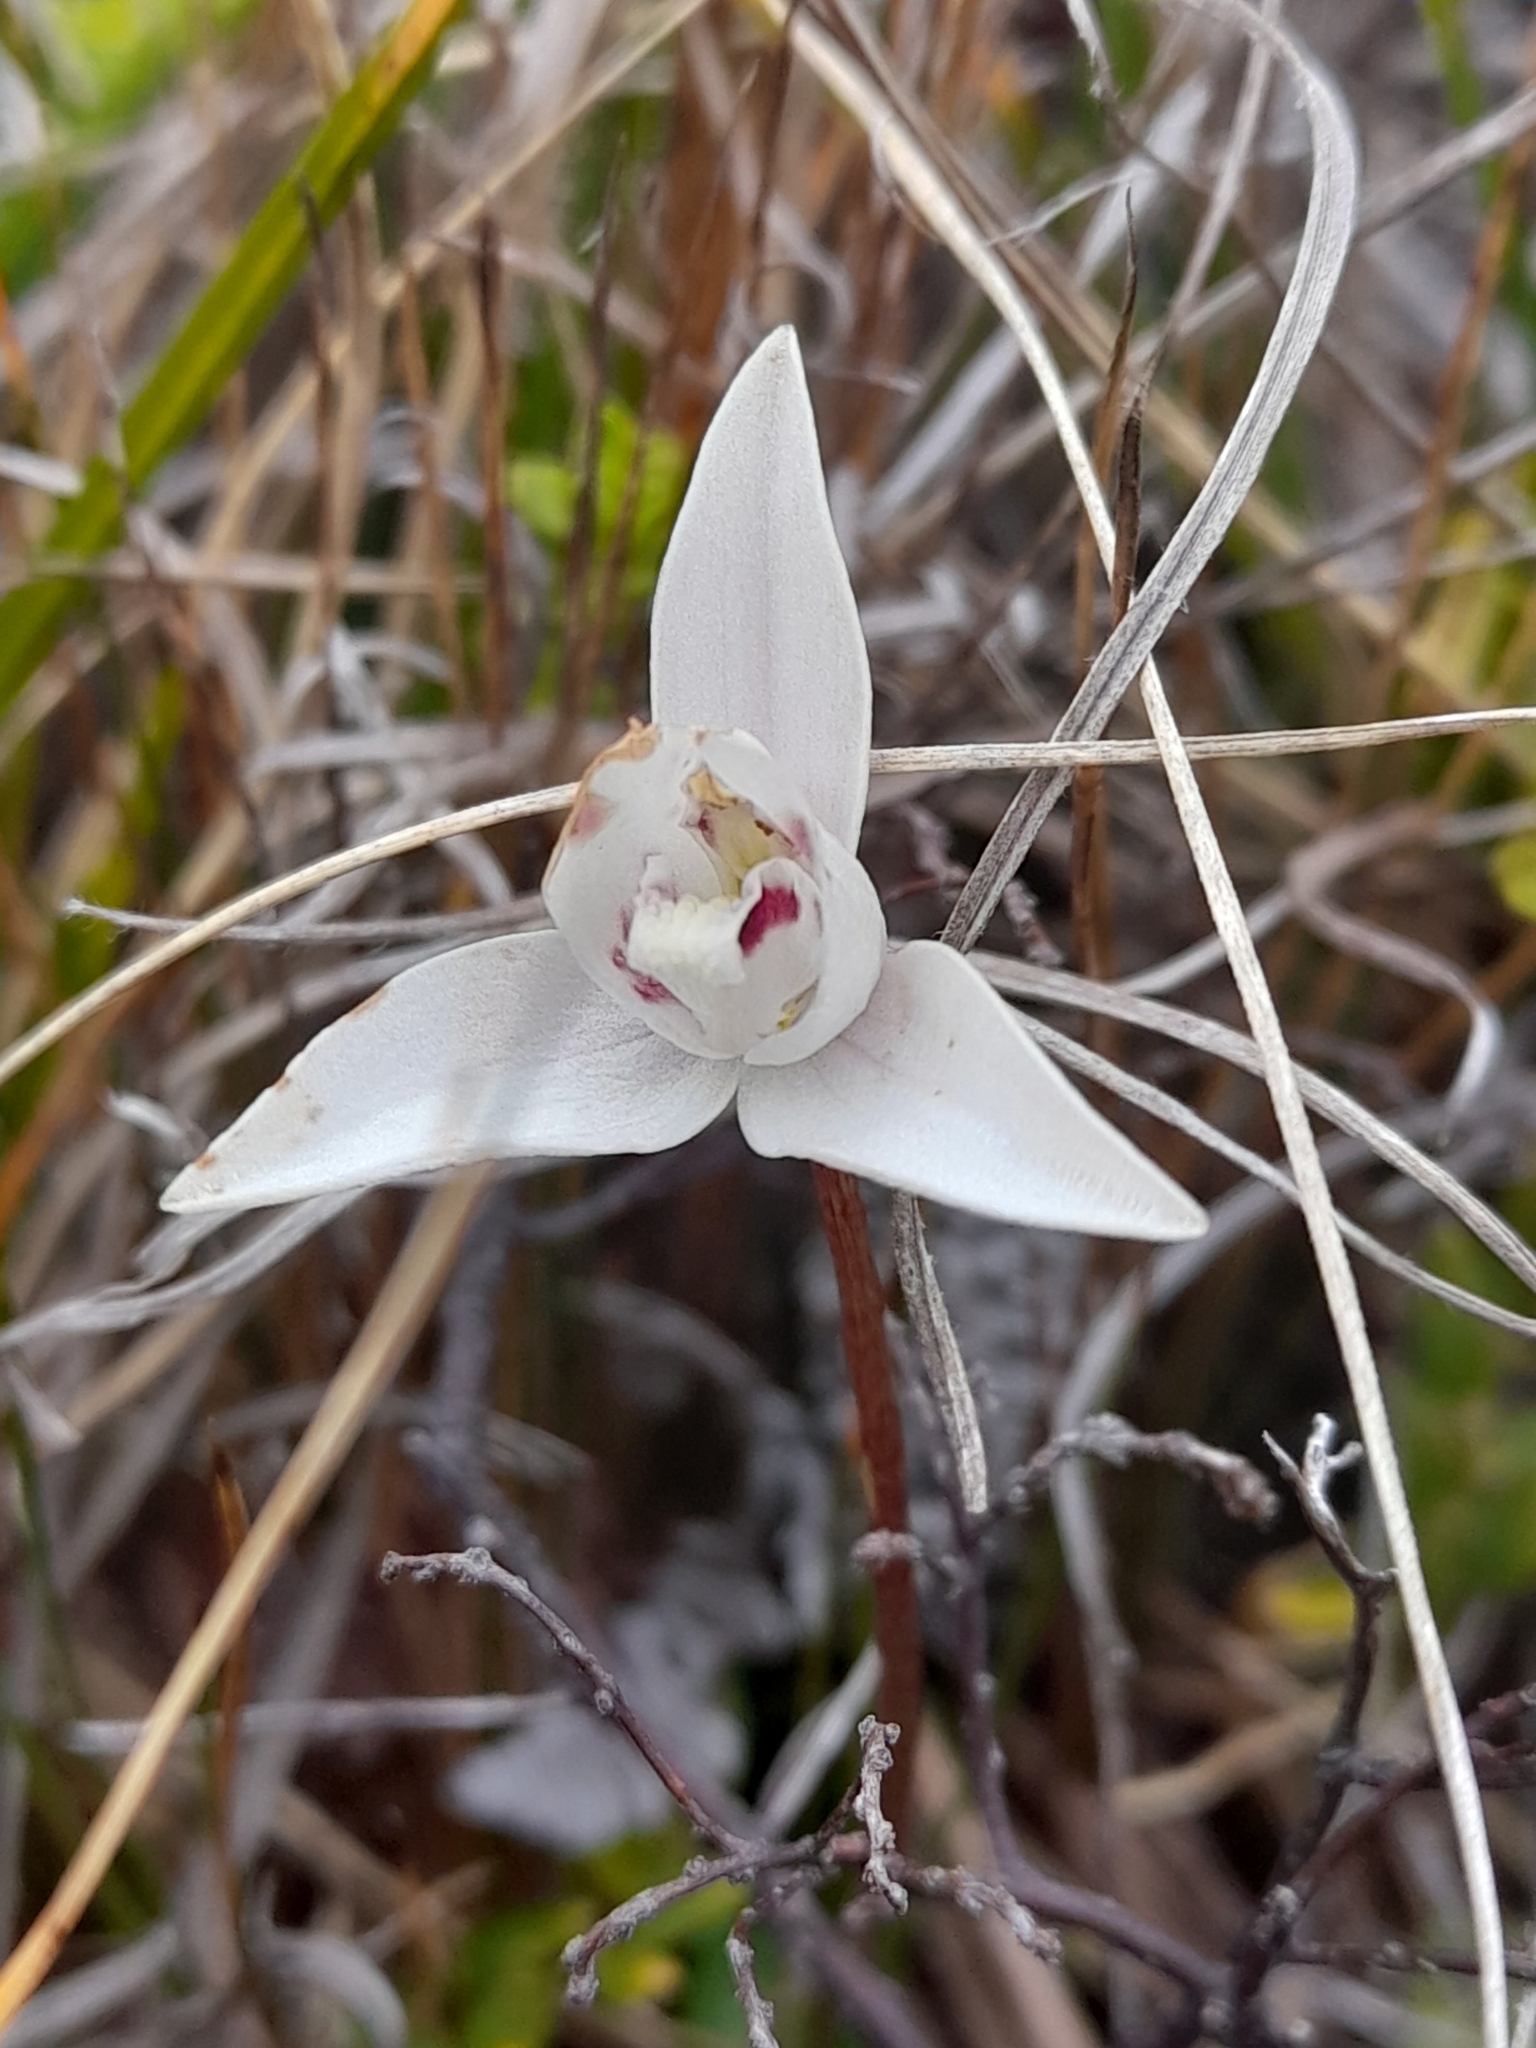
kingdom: Plantae
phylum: Tracheophyta
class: Liliopsida
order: Asparagales
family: Orchidaceae
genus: Codonorchis
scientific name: Codonorchis lessonii
